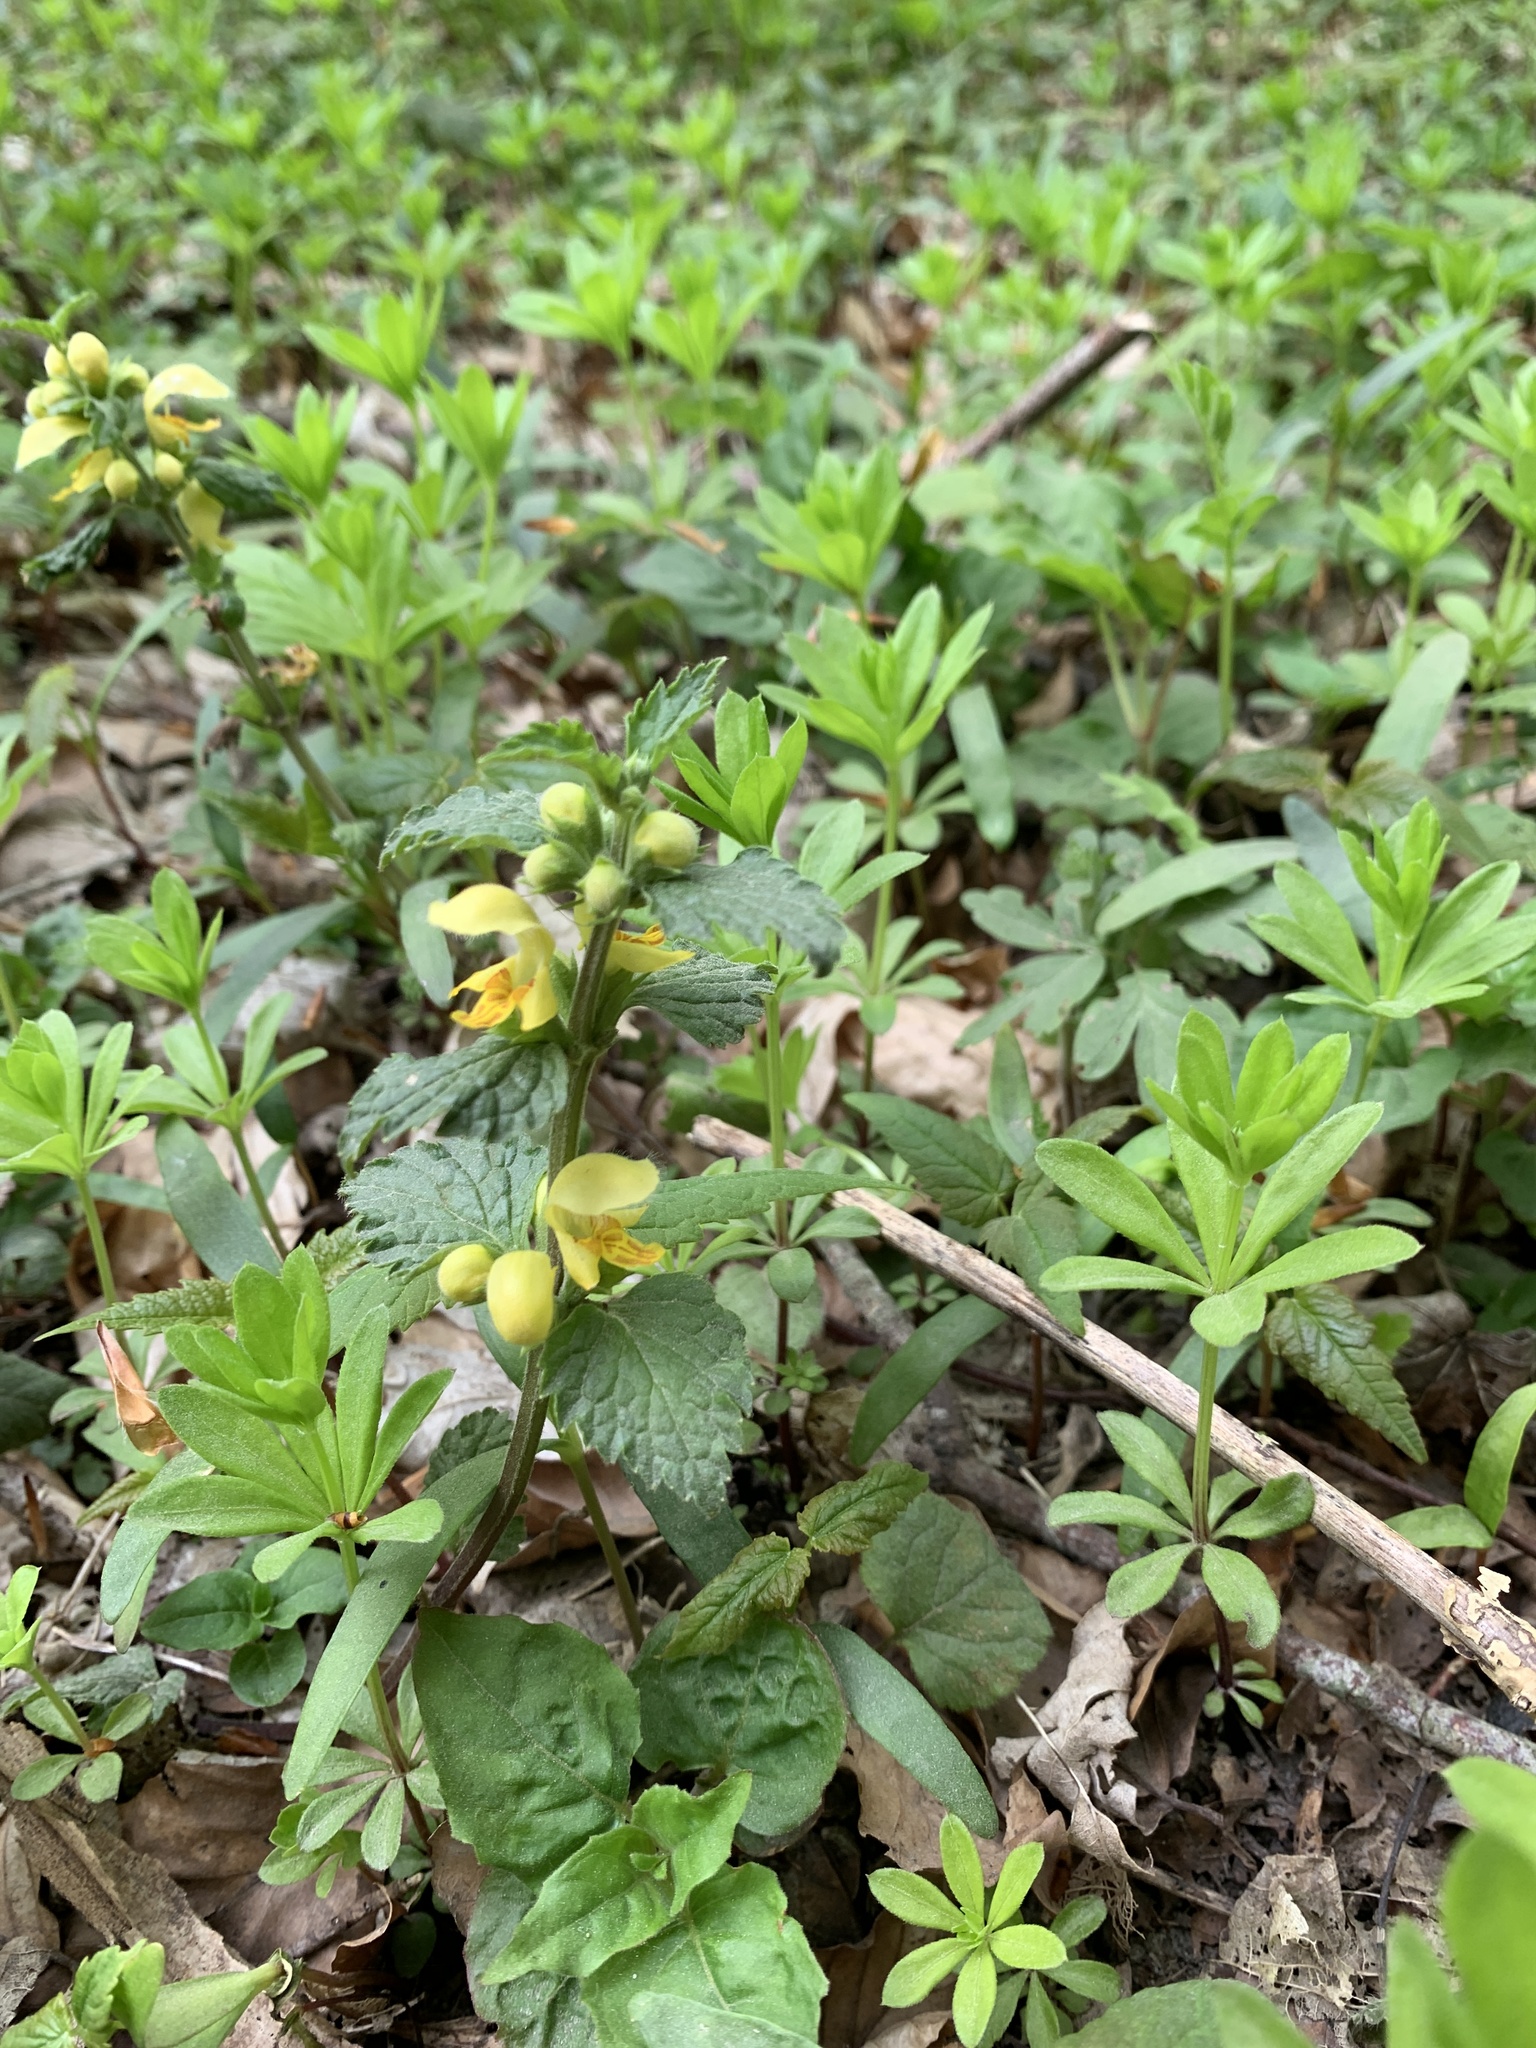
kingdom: Plantae
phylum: Tracheophyta
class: Magnoliopsida
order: Lamiales
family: Lamiaceae
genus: Lamium
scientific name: Lamium galeobdolon
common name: Yellow archangel
